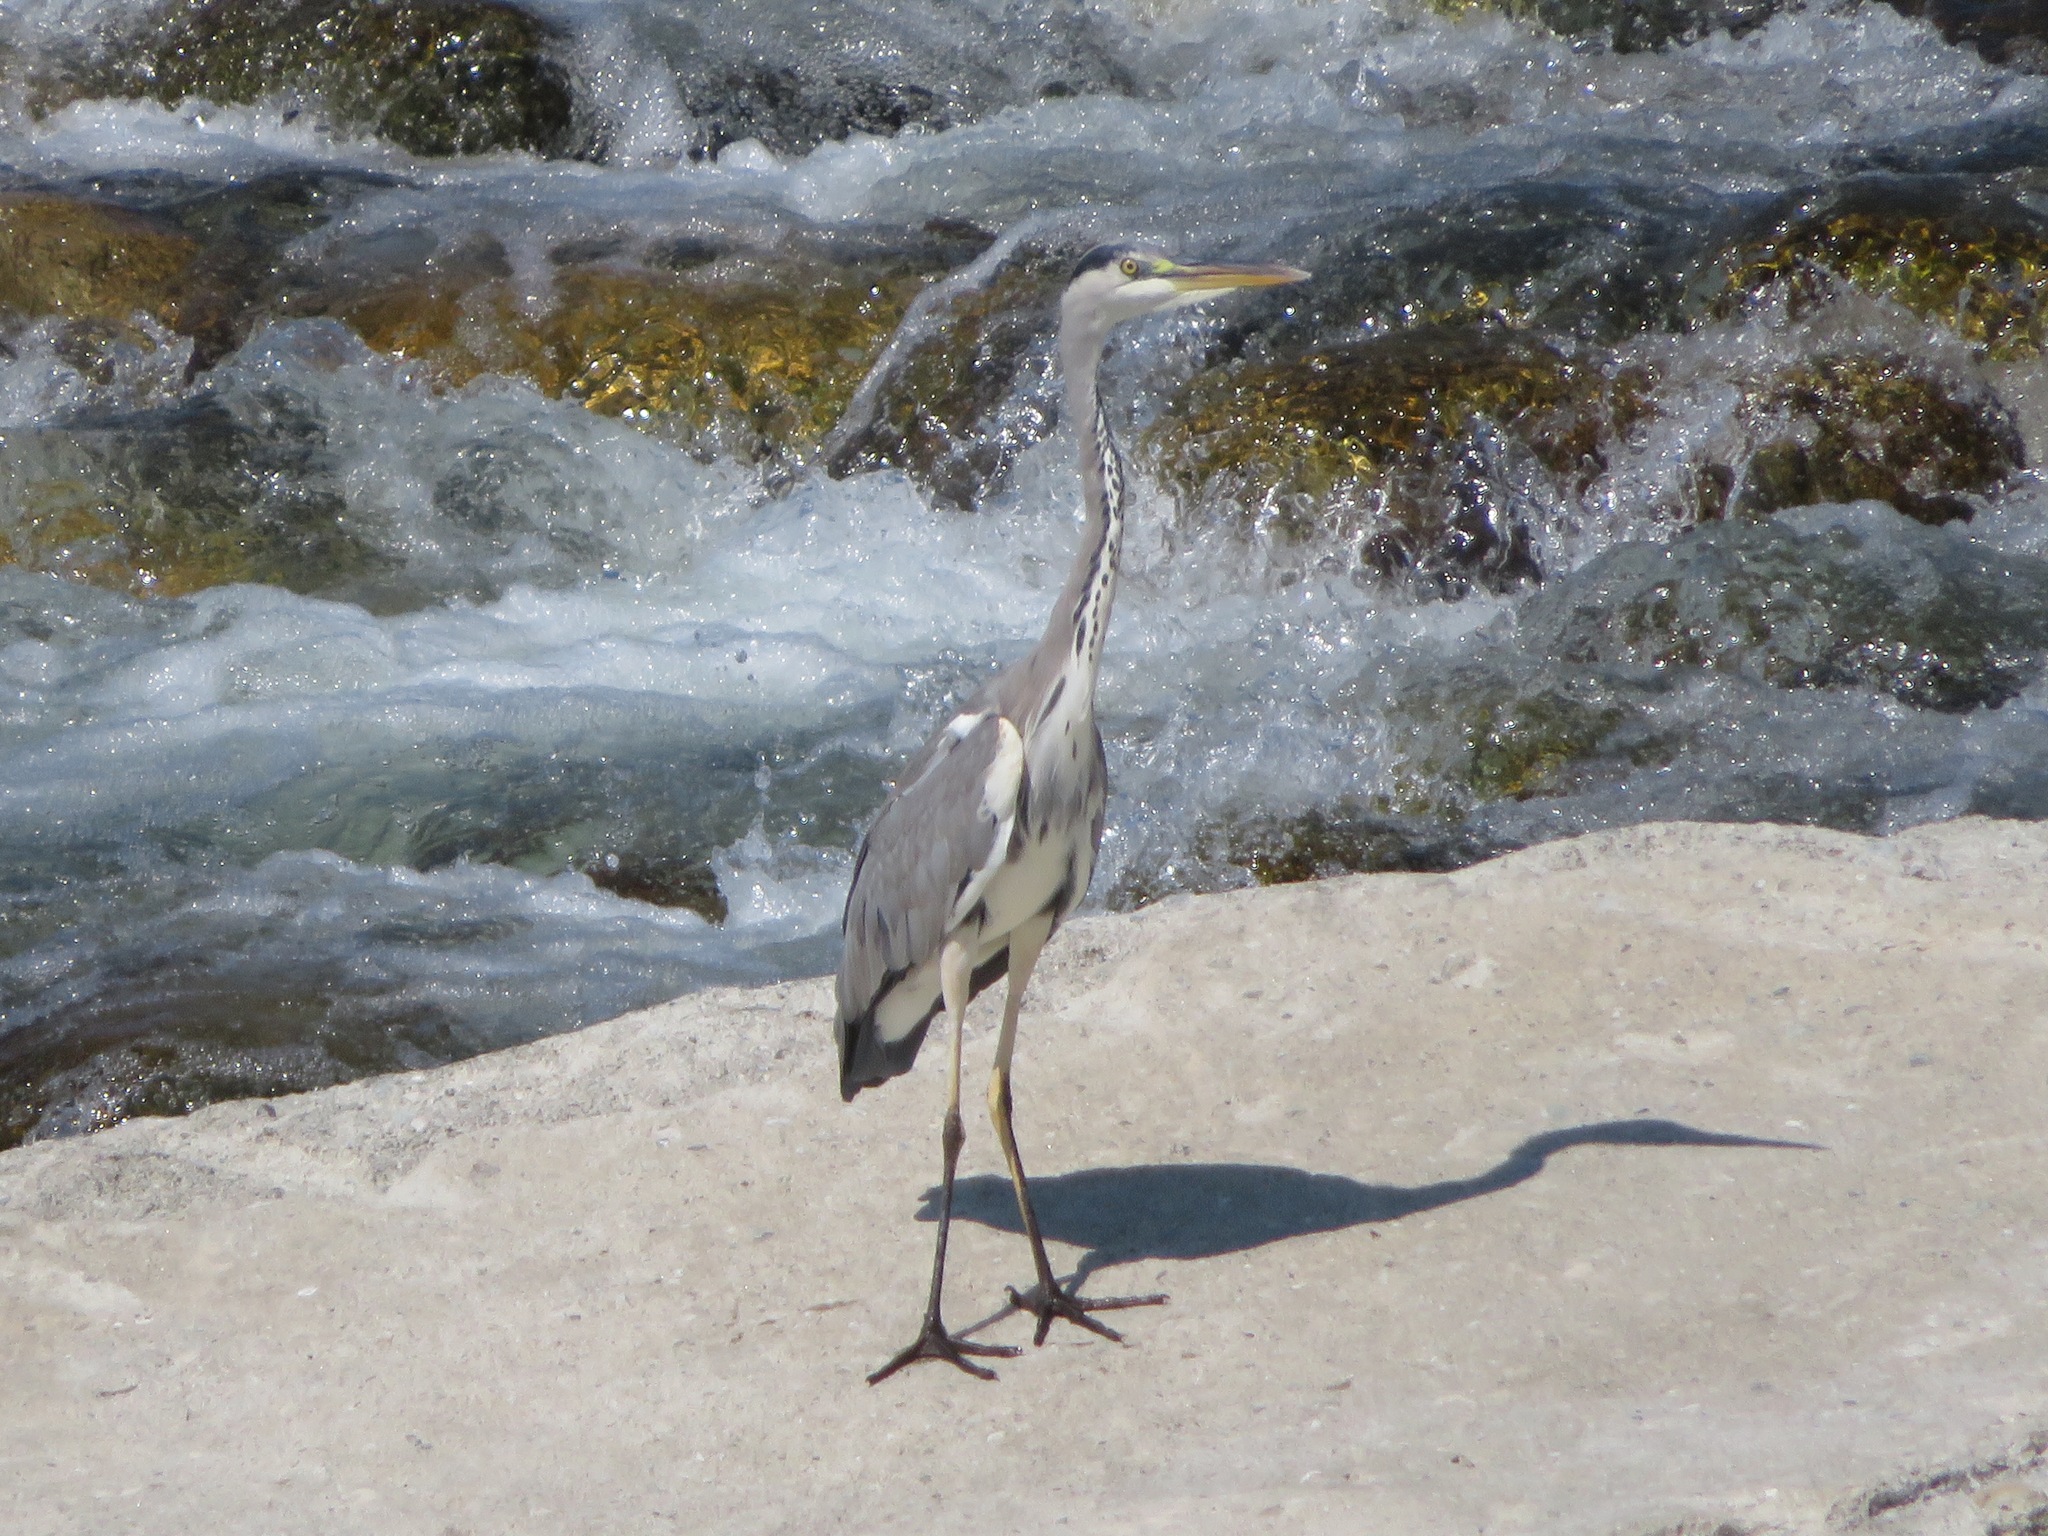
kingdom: Animalia
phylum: Chordata
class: Aves
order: Pelecaniformes
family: Ardeidae
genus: Ardea
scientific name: Ardea cinerea
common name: Grey heron
